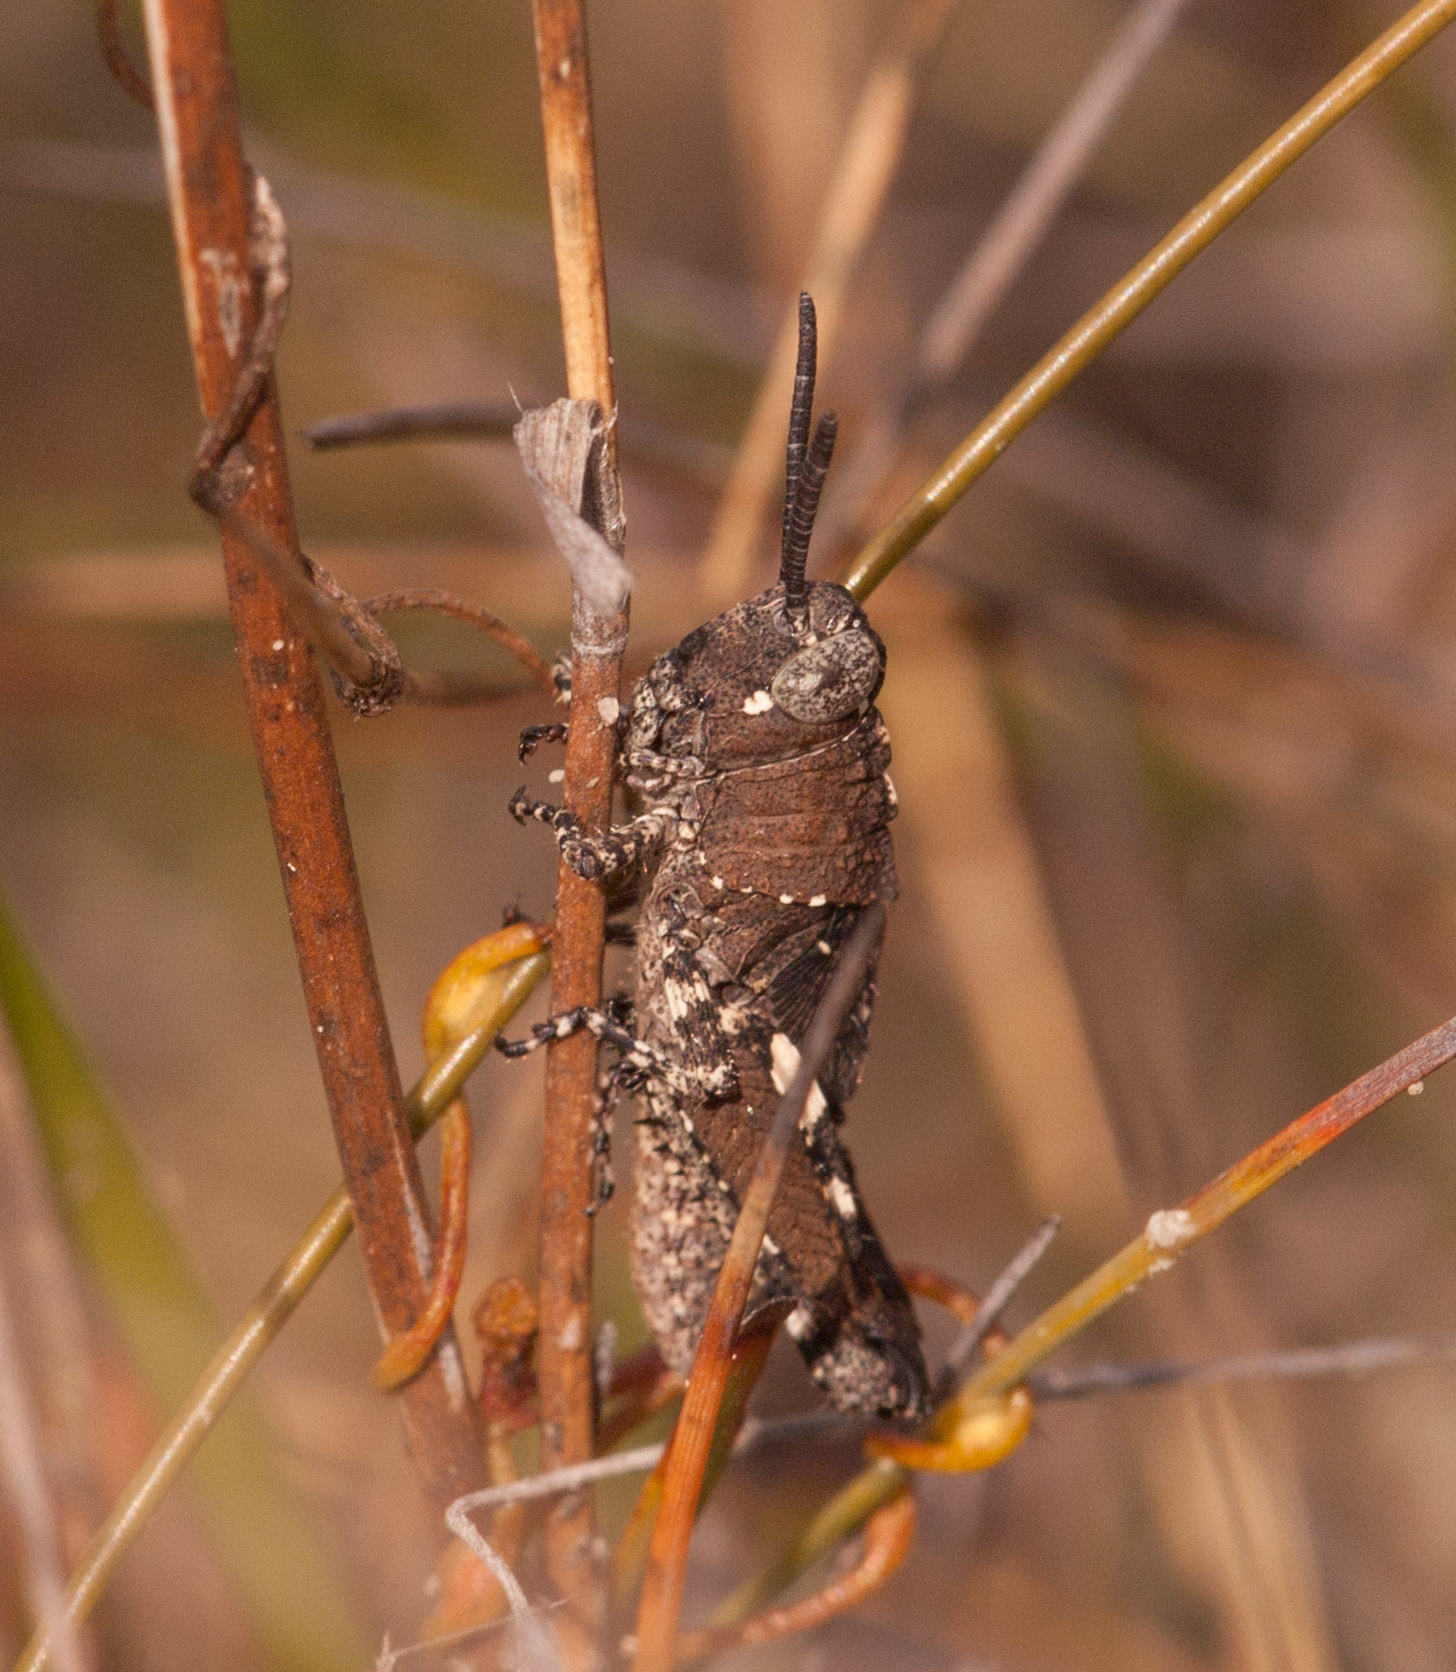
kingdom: Animalia
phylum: Arthropoda
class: Insecta
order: Orthoptera
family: Acrididae
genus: Cirphula
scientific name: Cirphula pyrrhocnemis
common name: Variable cirphula
